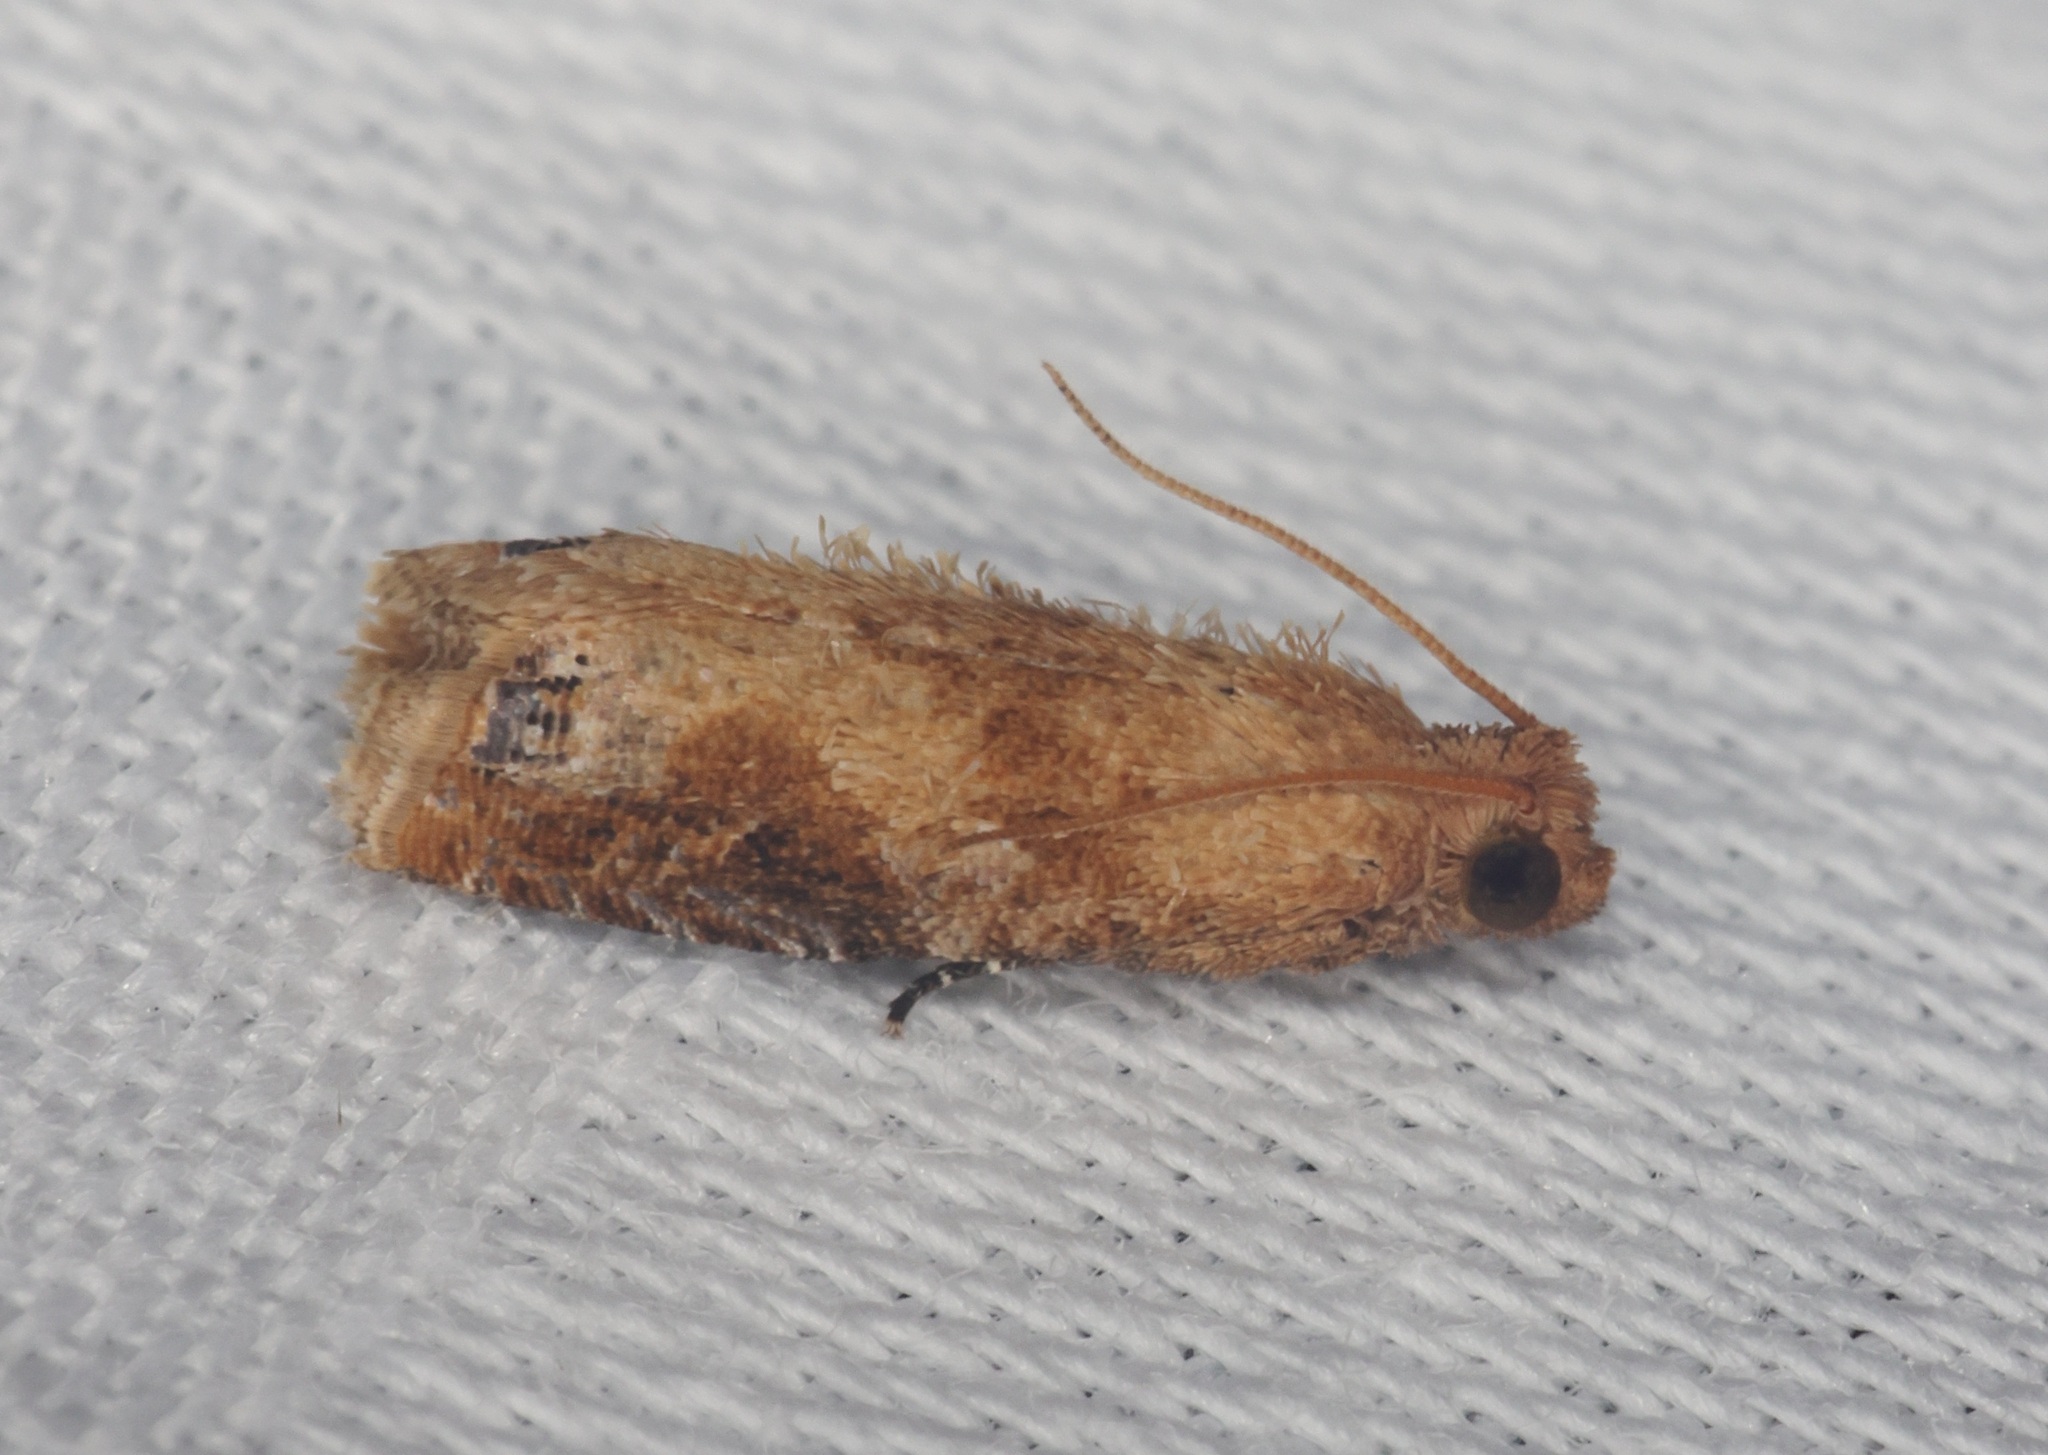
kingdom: Animalia
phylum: Arthropoda
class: Insecta
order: Lepidoptera
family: Tortricidae
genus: Lepteucosma
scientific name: Lepteucosma blanda
